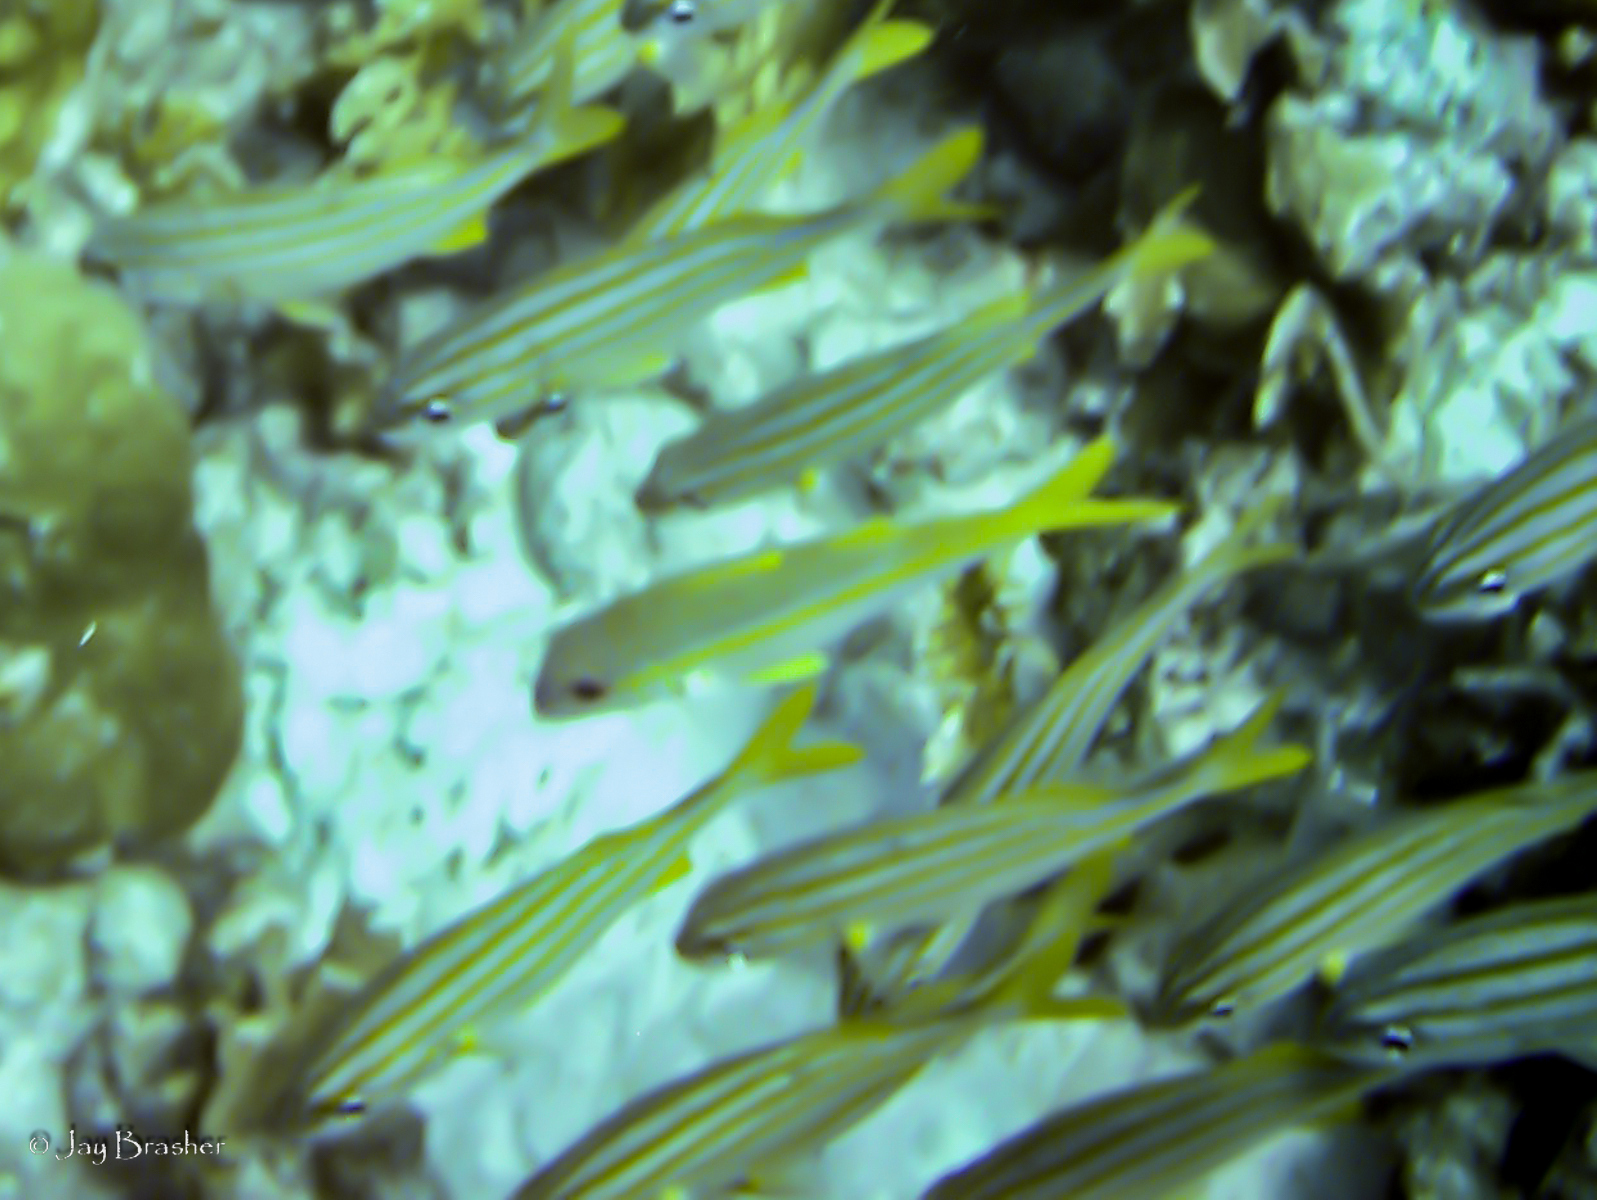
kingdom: Animalia
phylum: Chordata
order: Perciformes
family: Haemulidae
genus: Haemulon
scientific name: Haemulon chrysargyreum
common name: Smallmouth grunt
